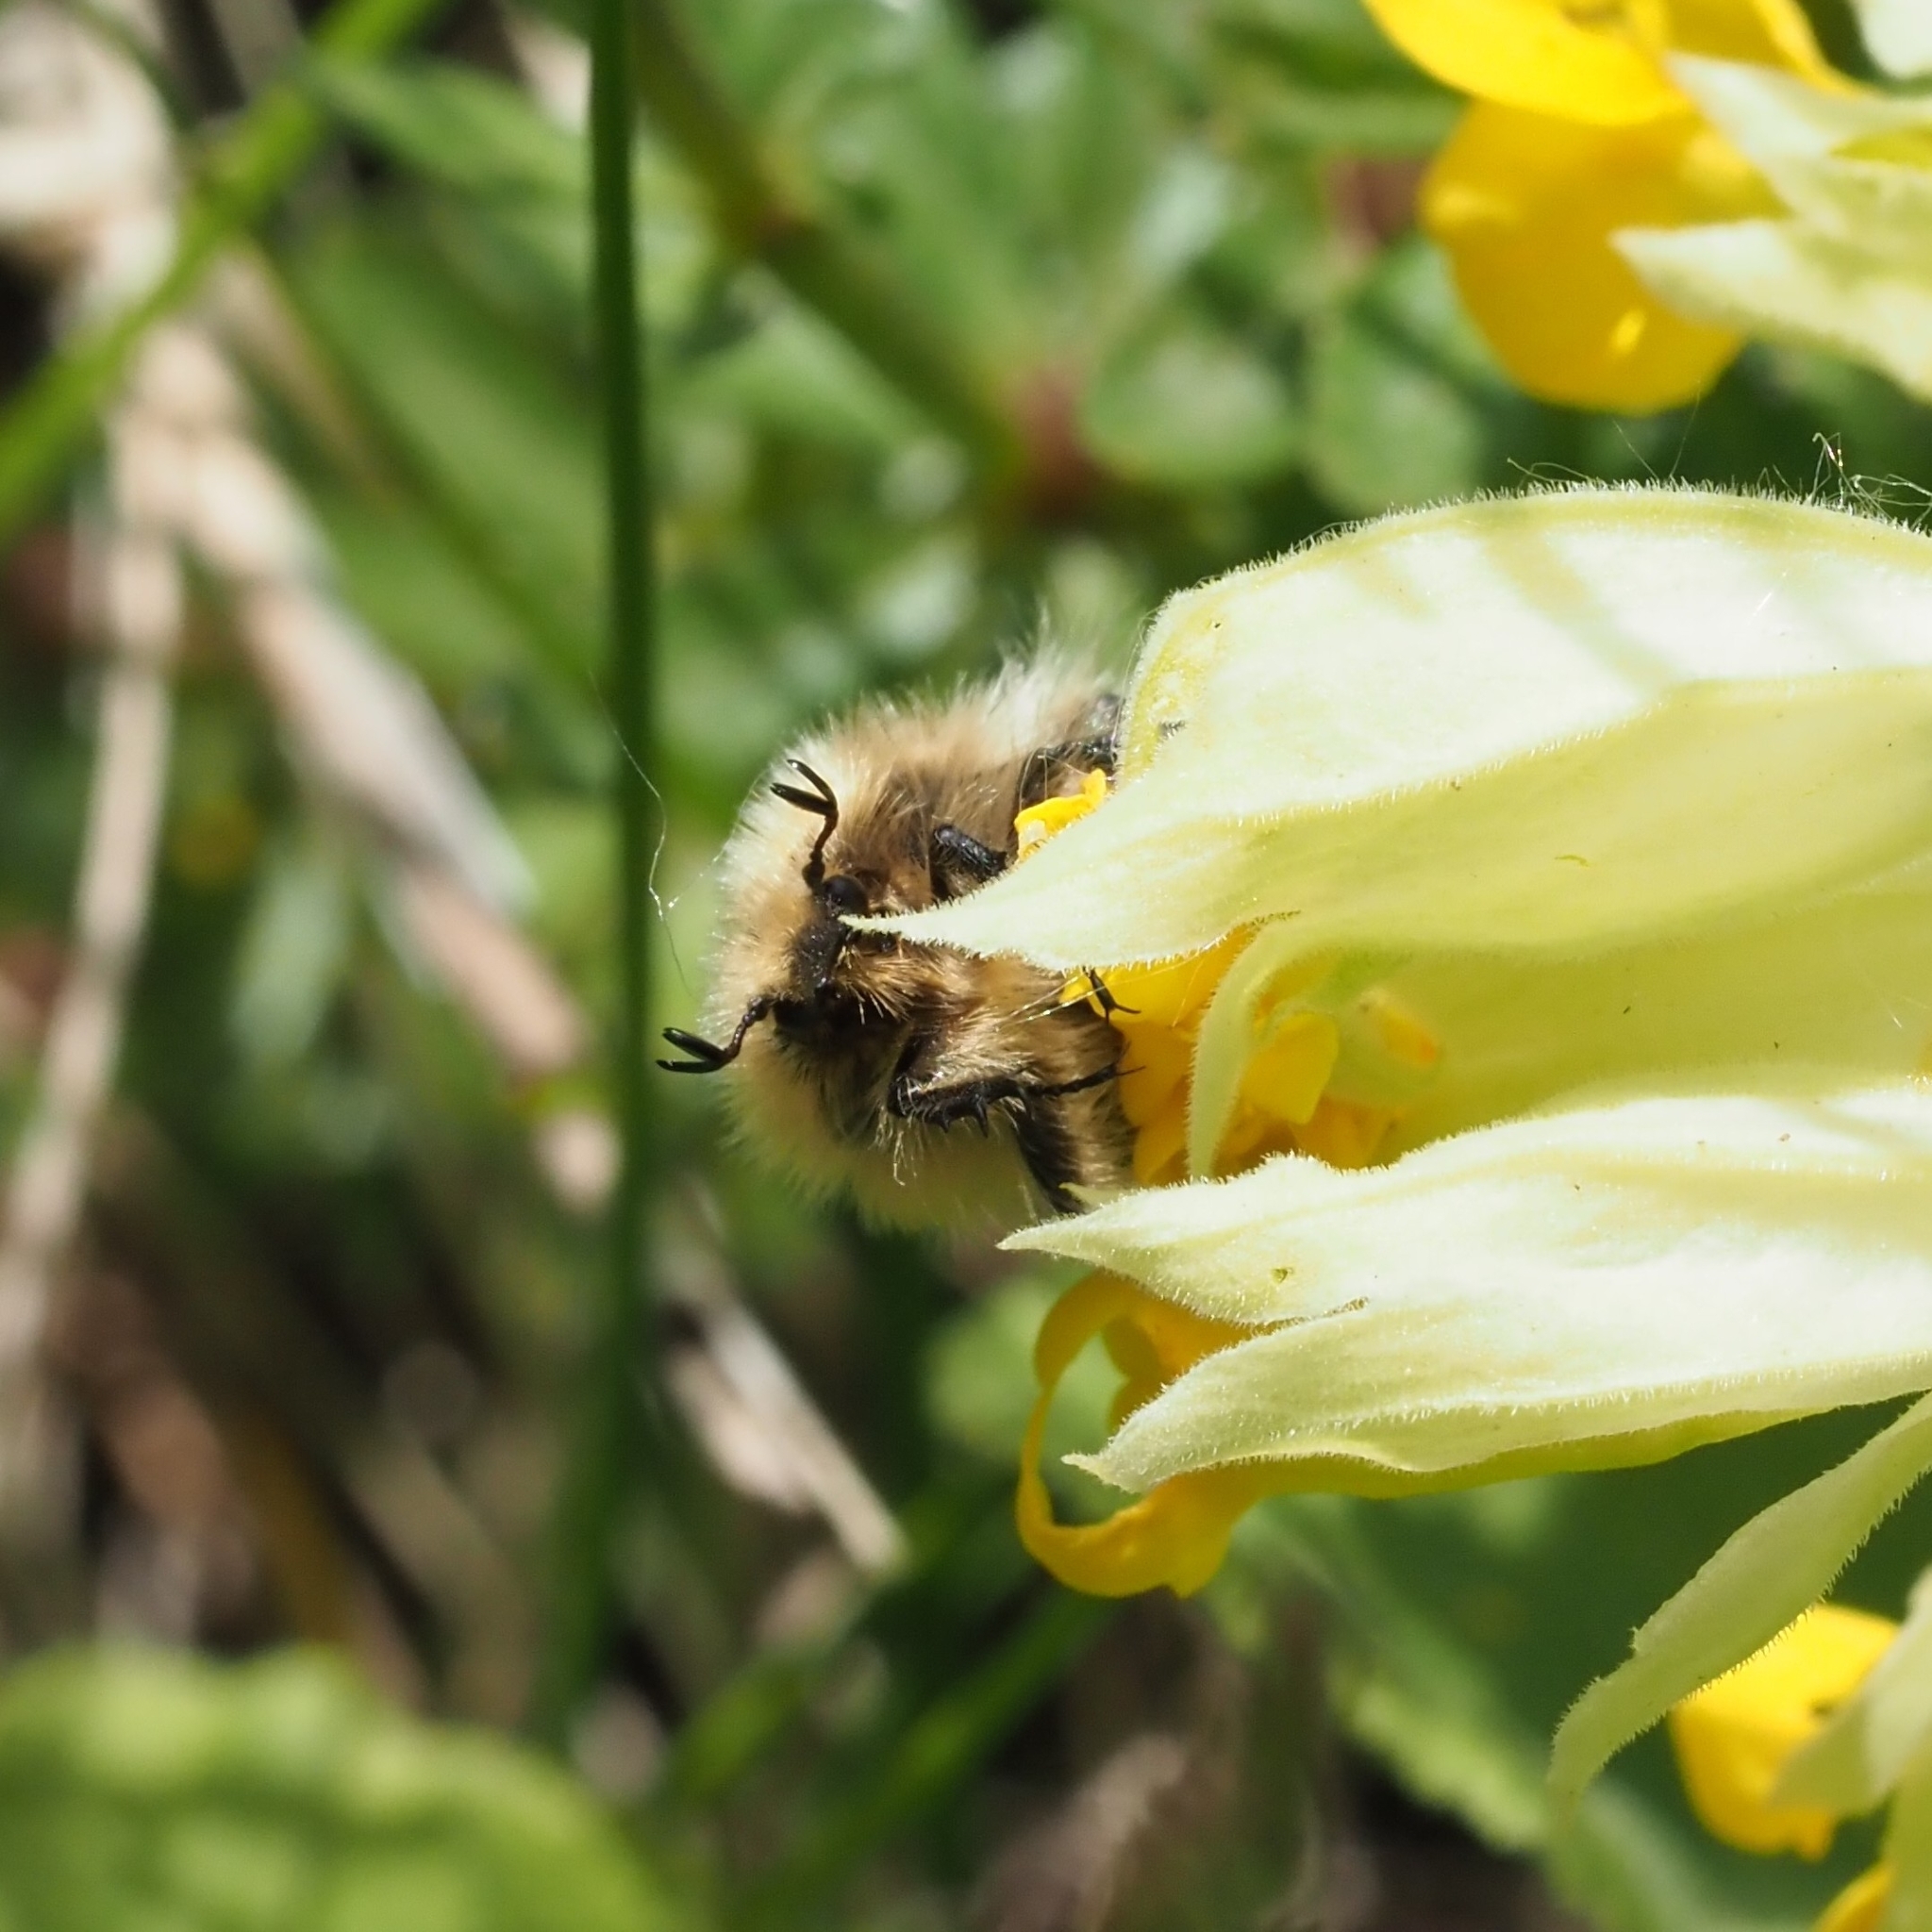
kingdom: Animalia
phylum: Arthropoda
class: Insecta
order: Coleoptera
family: Scarabaeidae
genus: Tropinota
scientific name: Tropinota hirta
